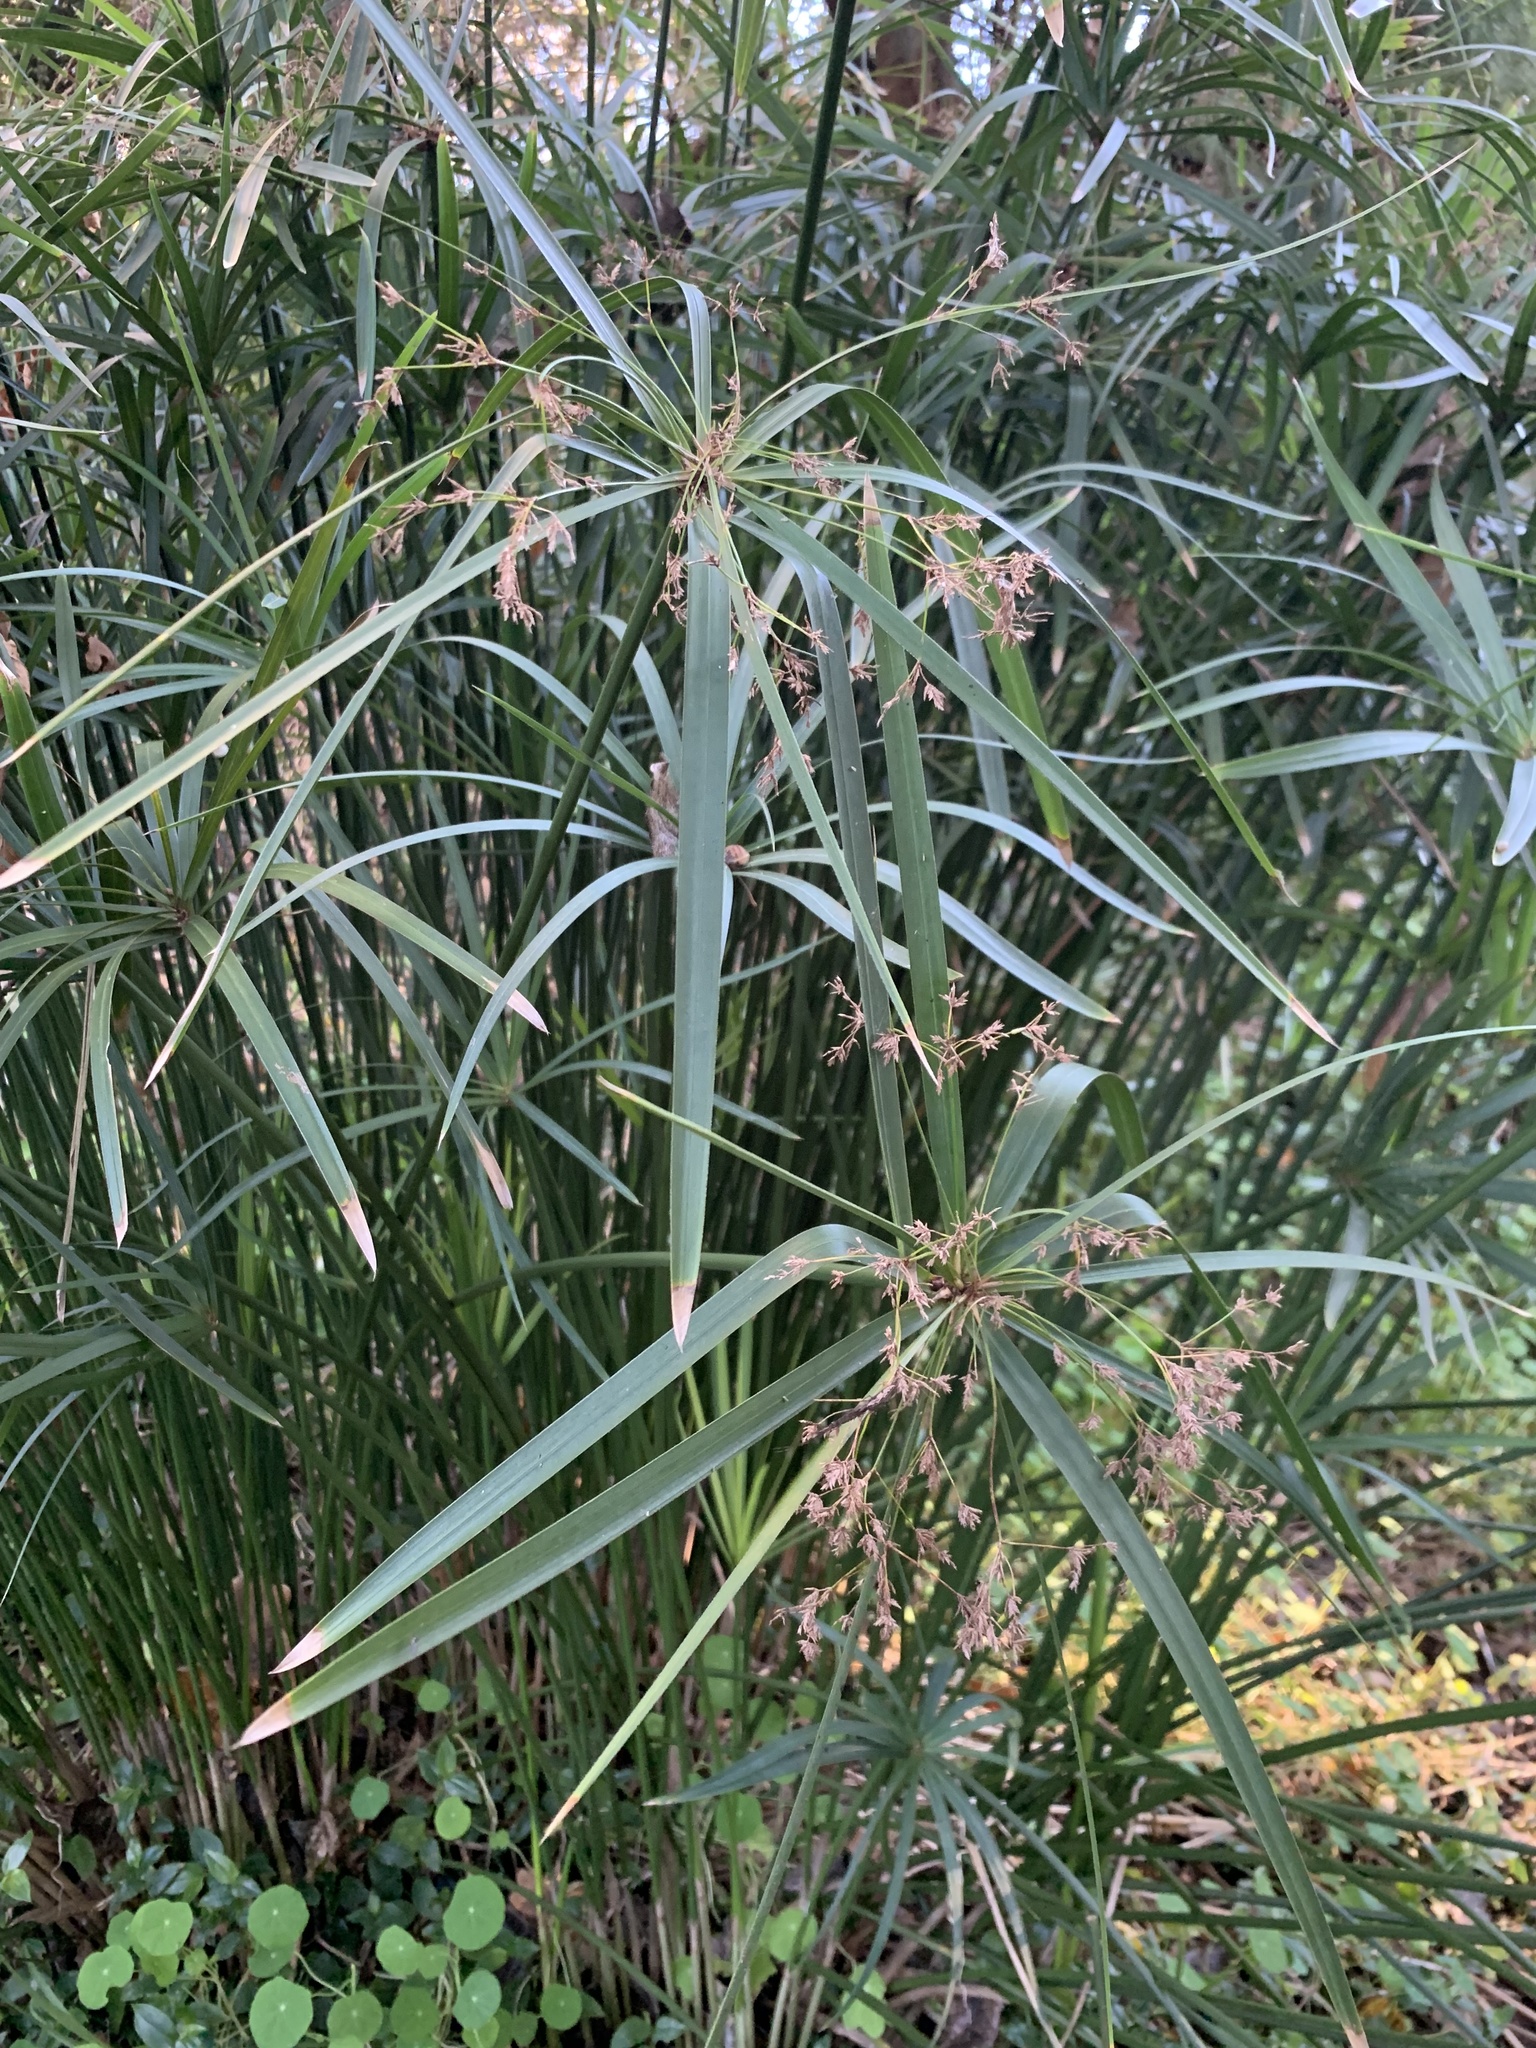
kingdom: Plantae
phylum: Tracheophyta
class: Liliopsida
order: Poales
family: Cyperaceae
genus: Cyperus
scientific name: Cyperus textilis
